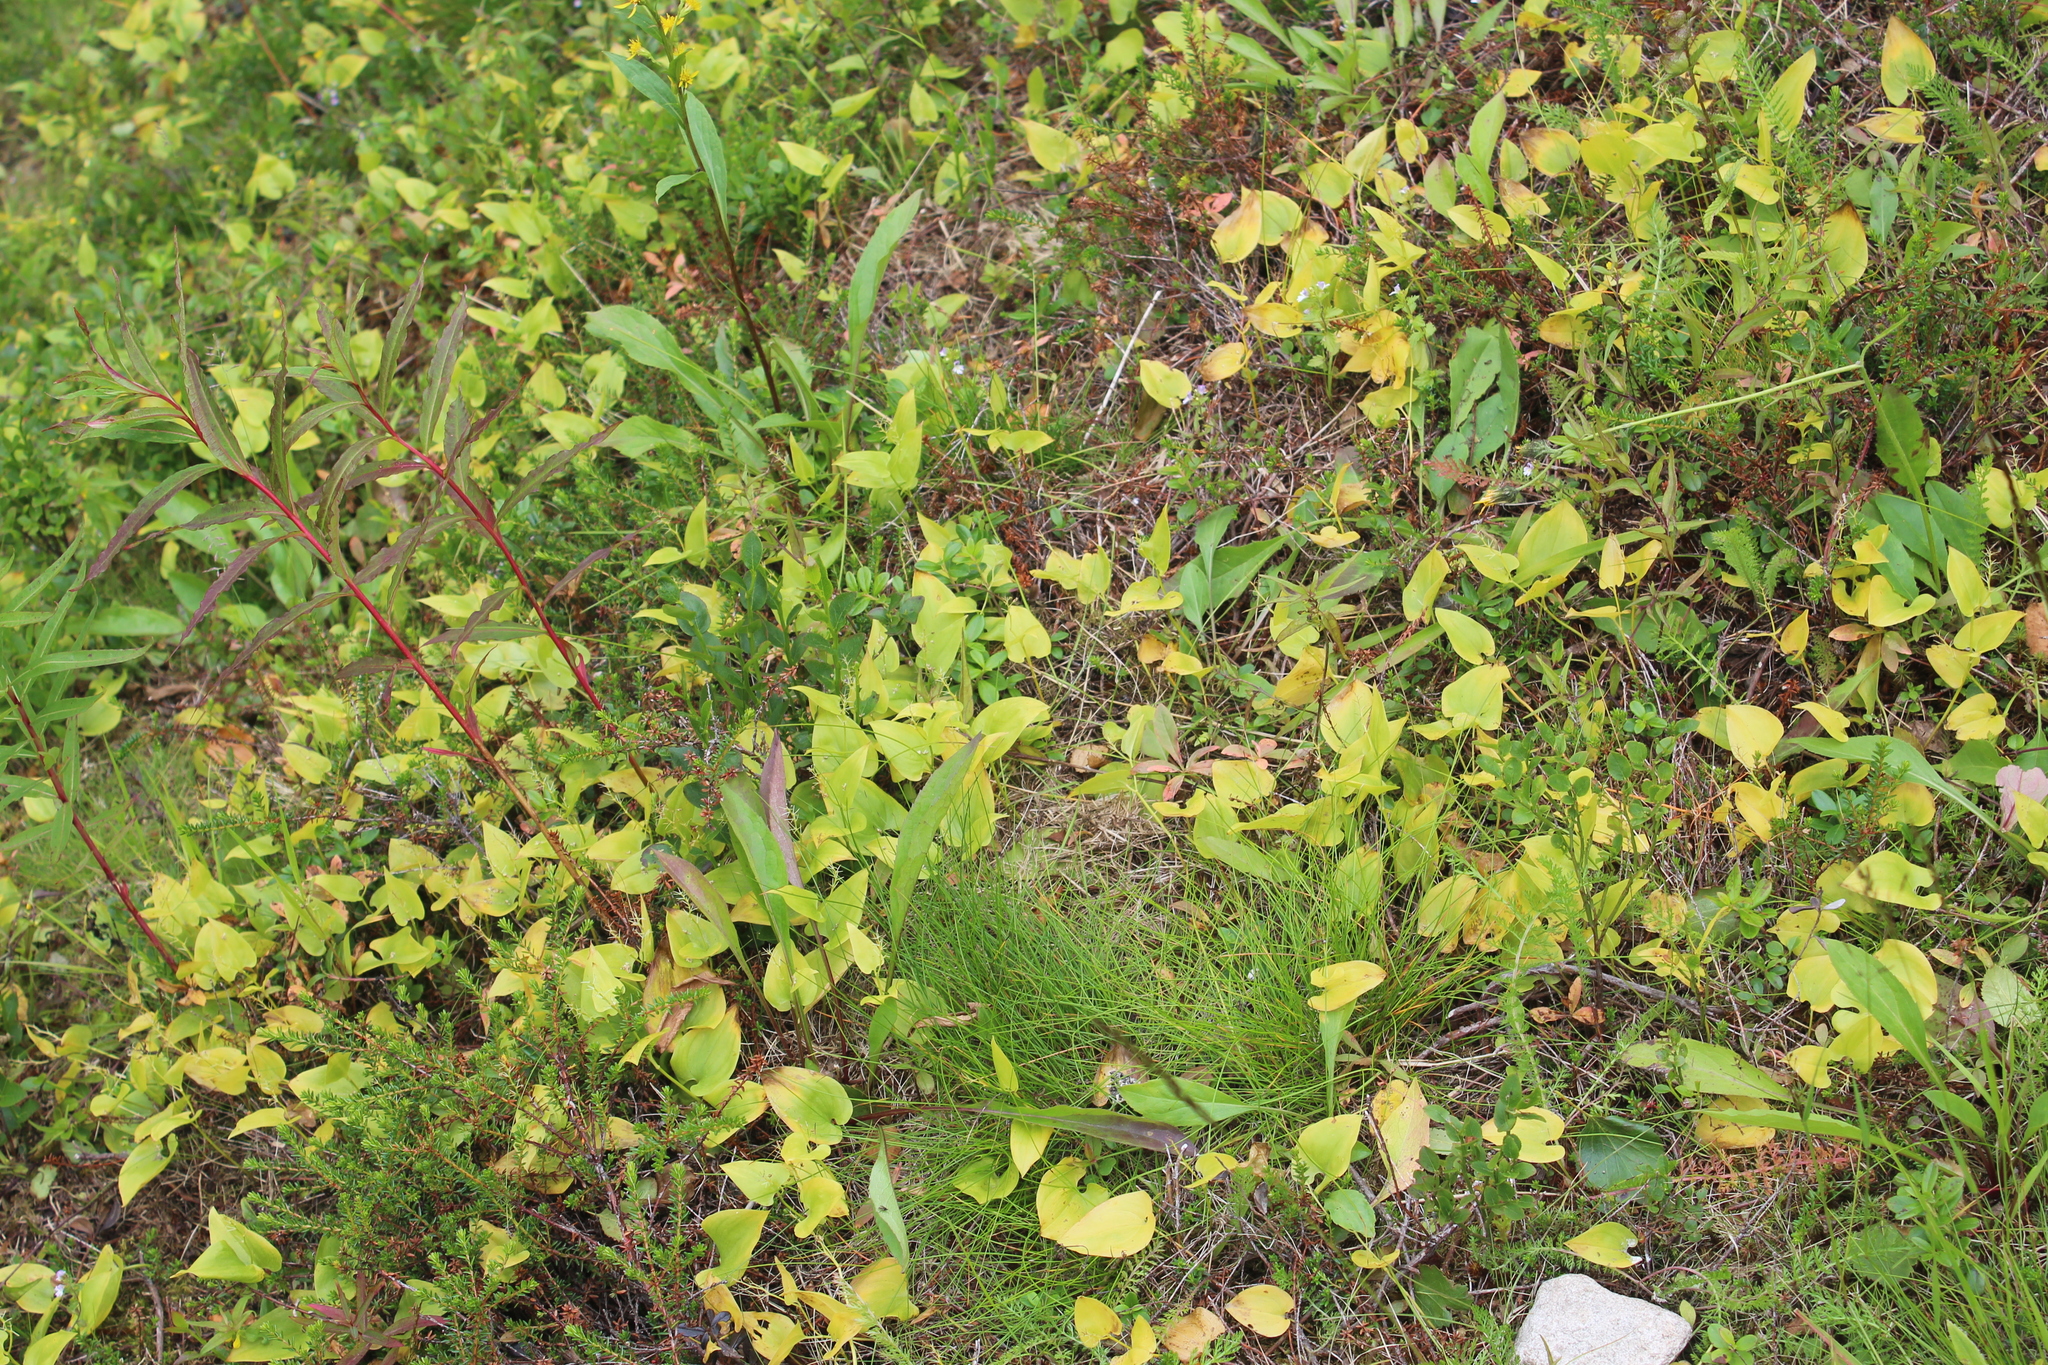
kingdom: Plantae
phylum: Tracheophyta
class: Liliopsida
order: Asparagales
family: Asparagaceae
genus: Maianthemum
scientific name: Maianthemum bifolium
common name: May lily
